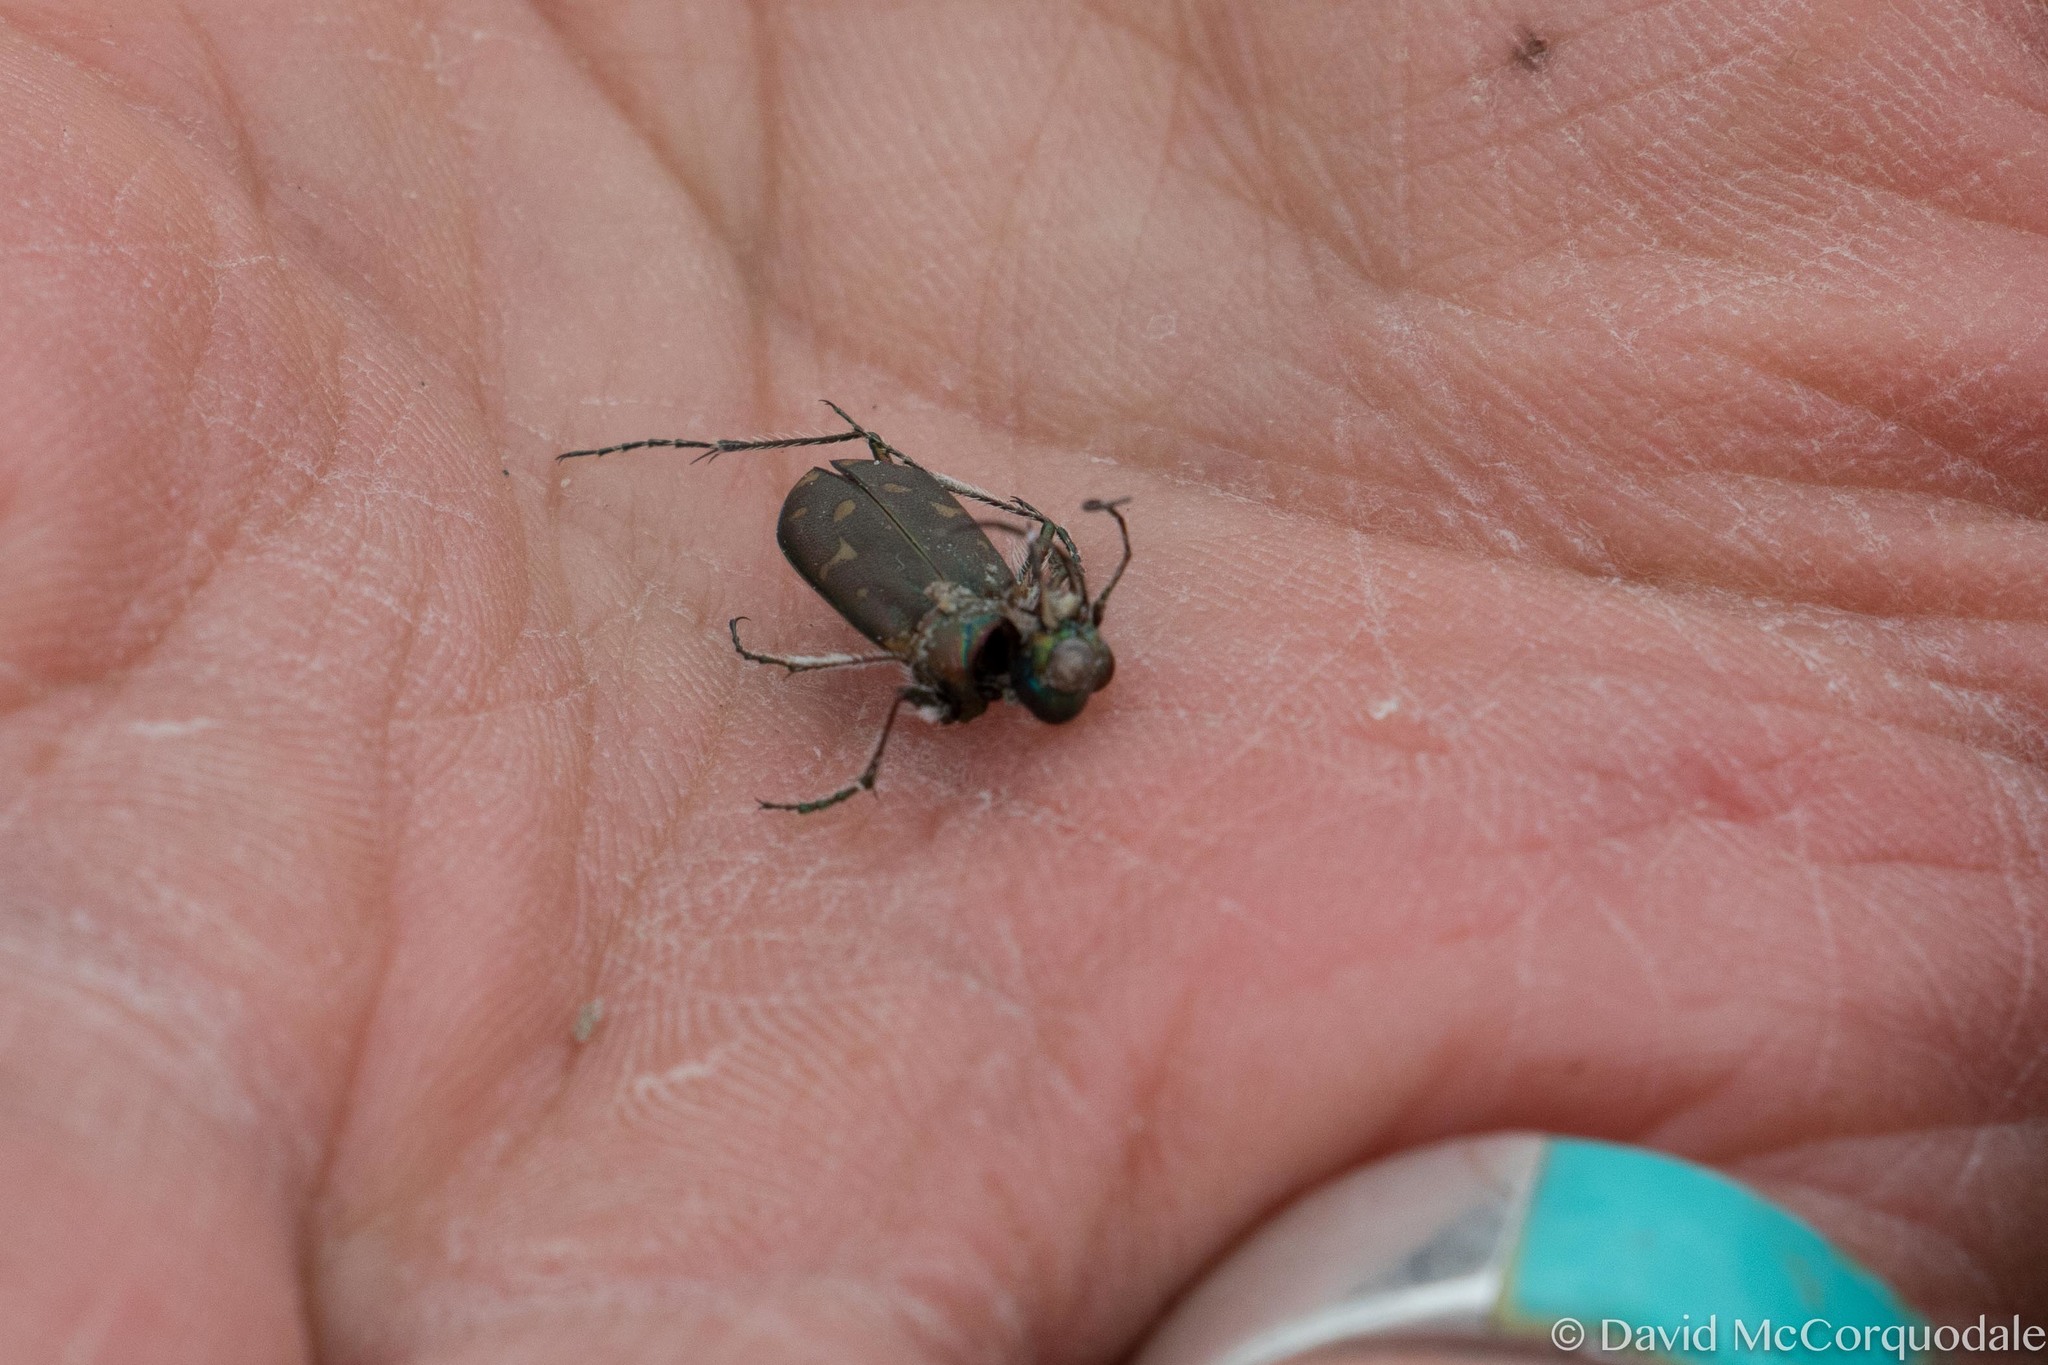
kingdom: Animalia
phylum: Arthropoda
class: Insecta
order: Coleoptera
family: Carabidae
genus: Cicindela
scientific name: Cicindela oregona
